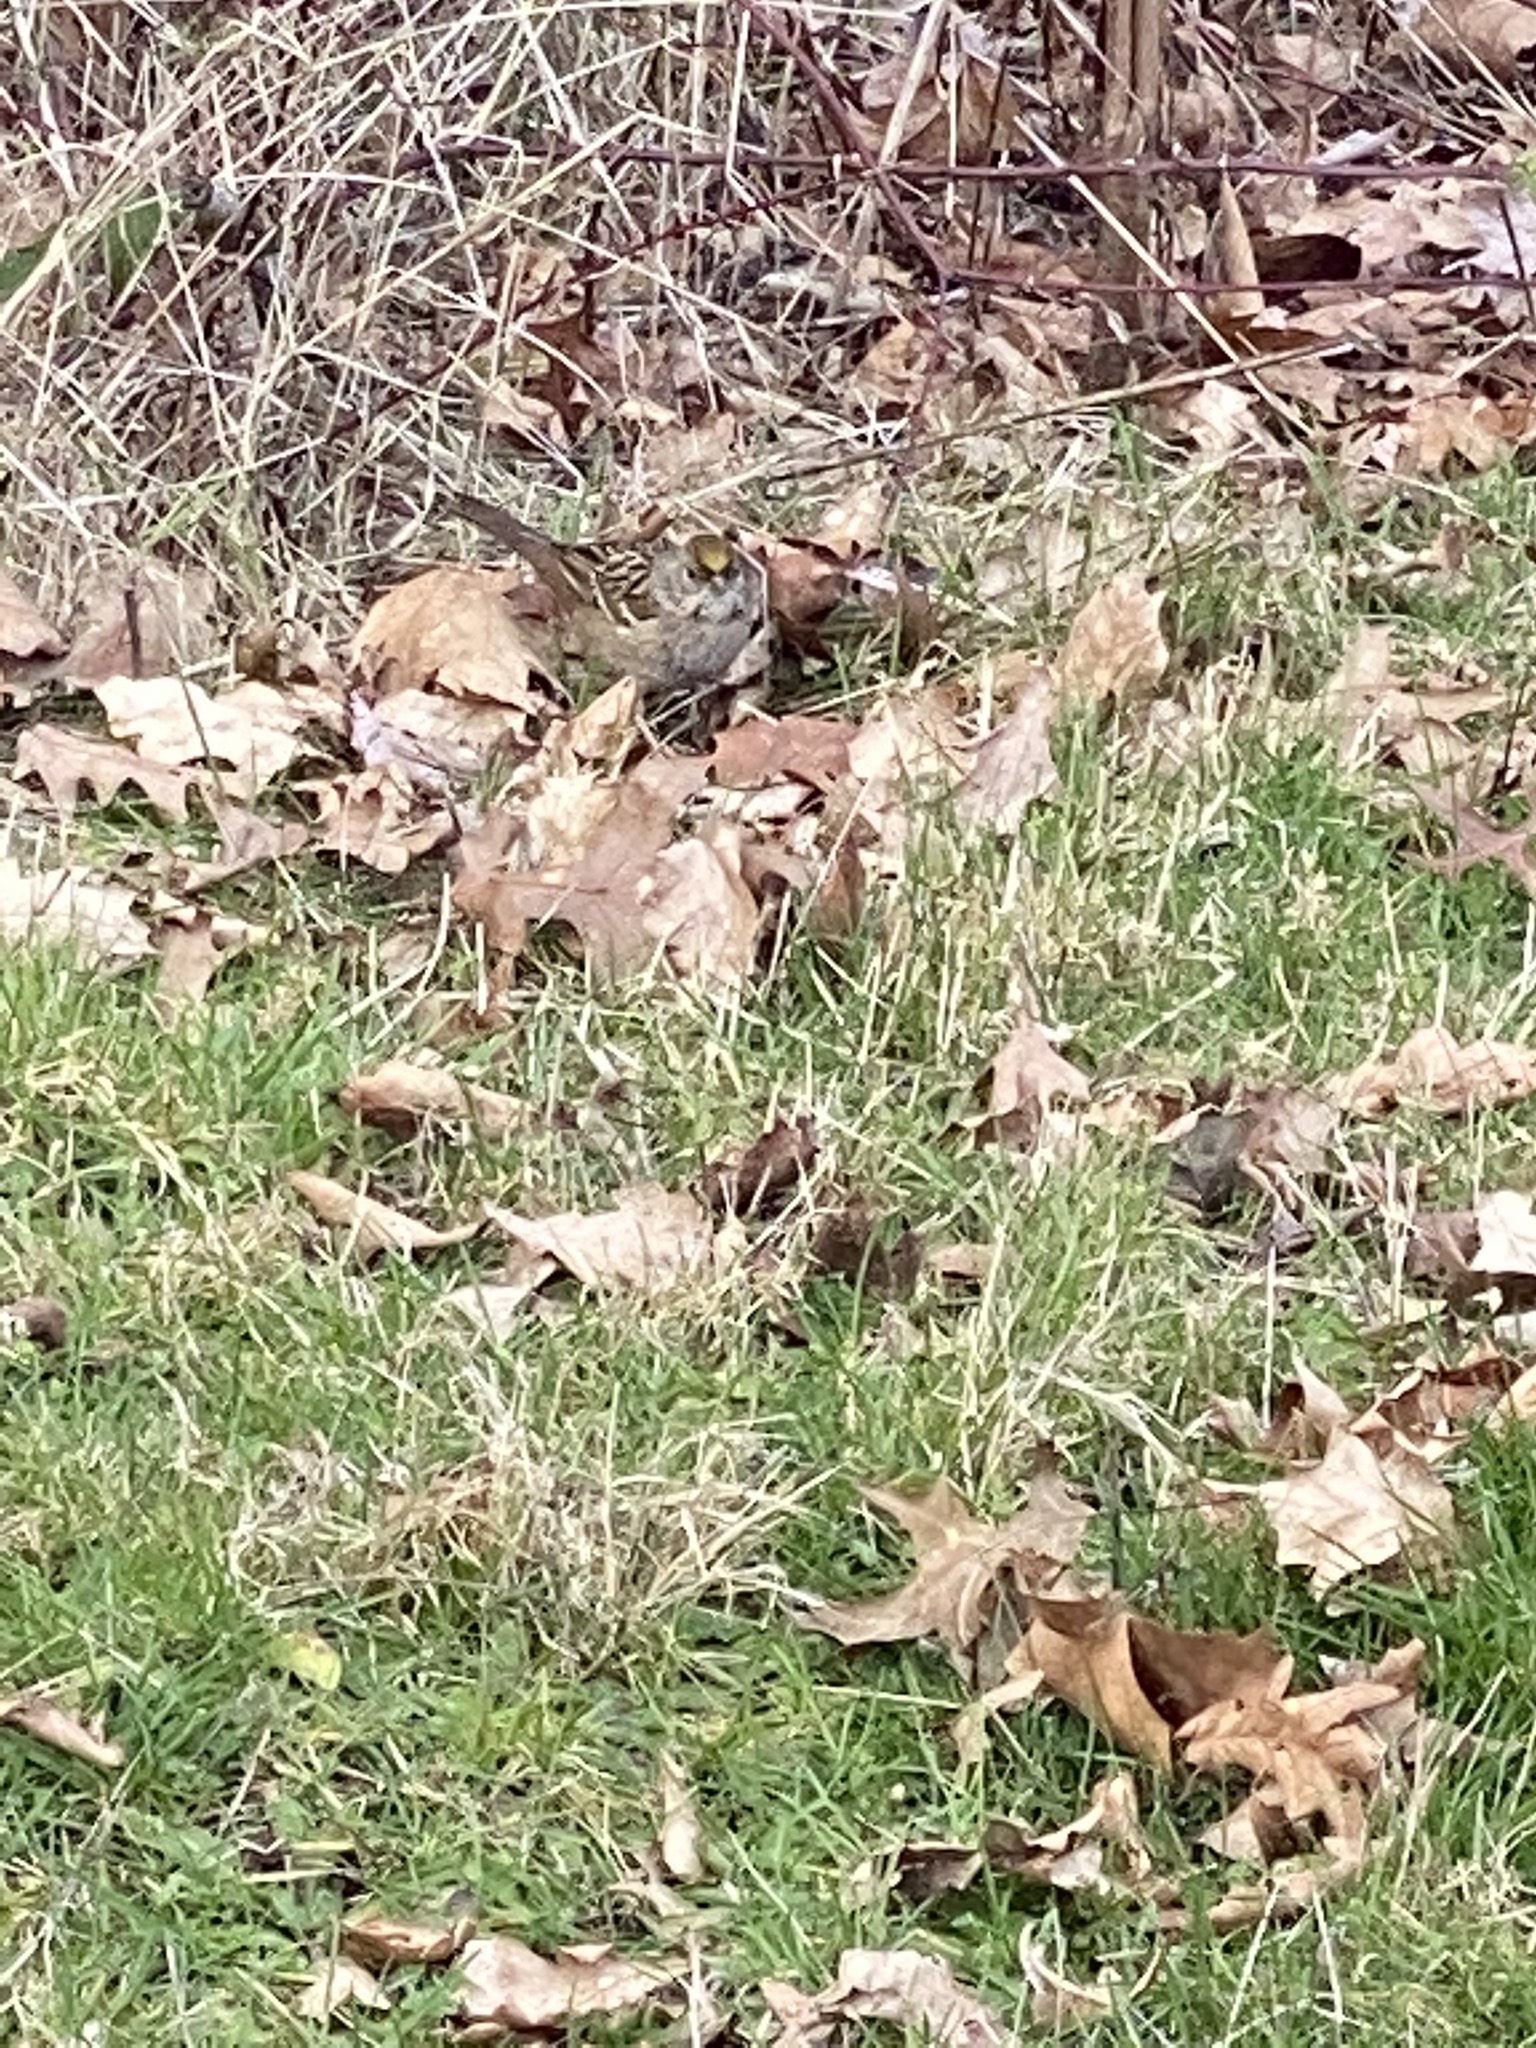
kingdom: Animalia
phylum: Chordata
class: Aves
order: Passeriformes
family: Passerellidae
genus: Zonotrichia
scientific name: Zonotrichia atricapilla
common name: Golden-crowned sparrow
